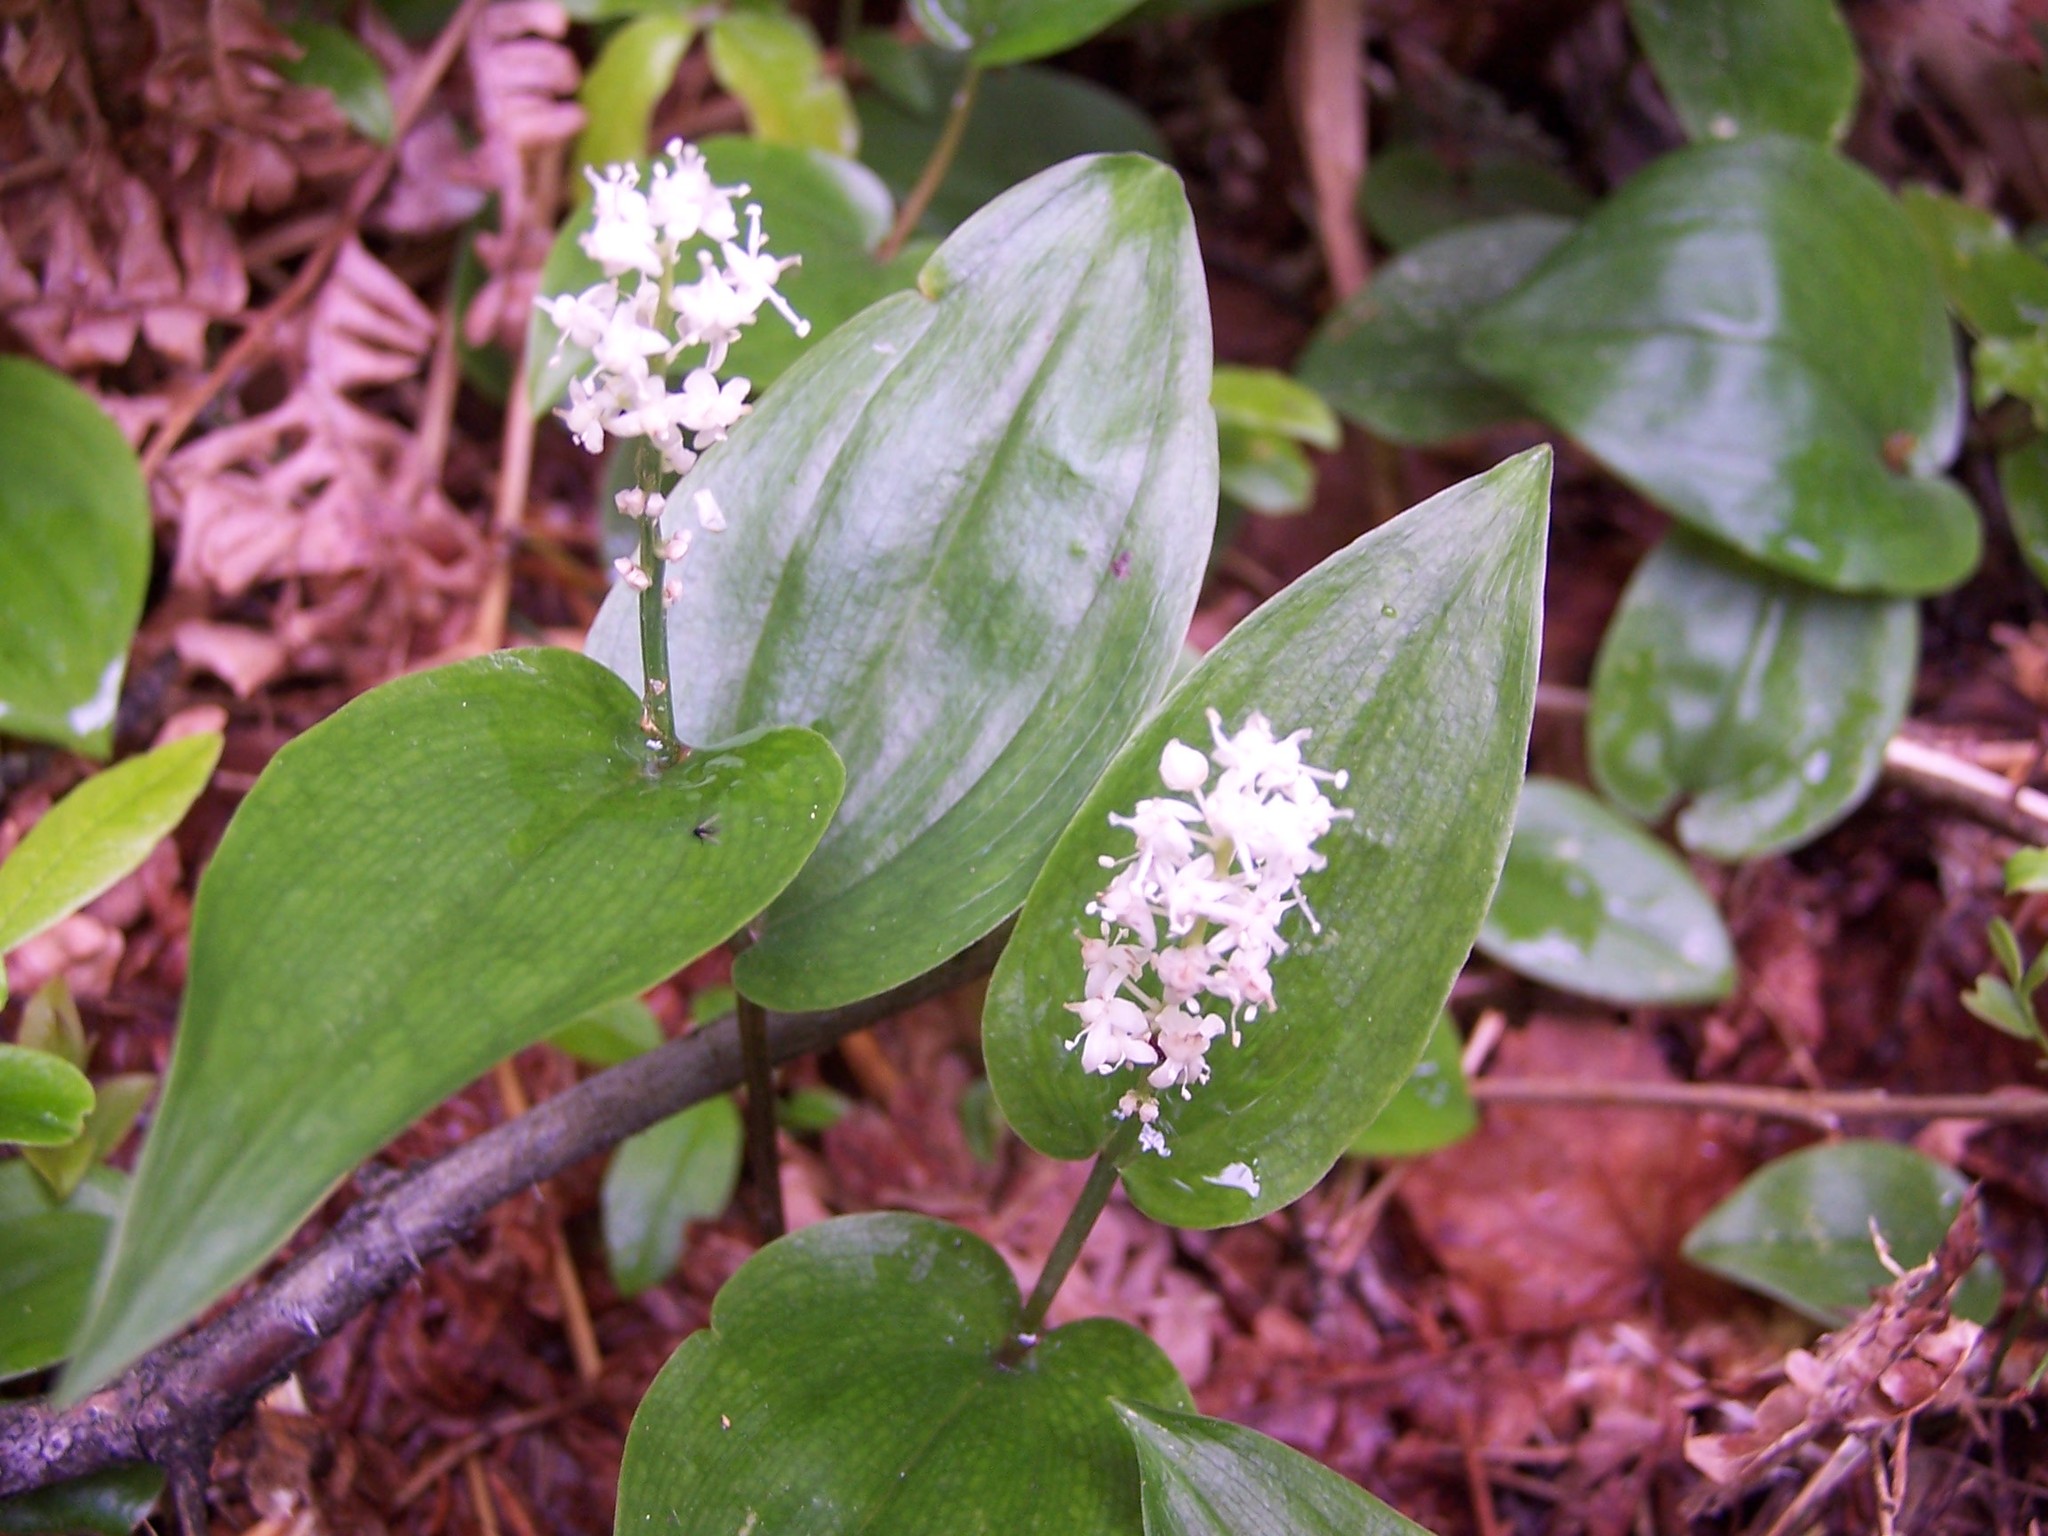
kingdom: Plantae
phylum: Tracheophyta
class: Liliopsida
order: Asparagales
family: Asparagaceae
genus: Maianthemum
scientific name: Maianthemum canadense
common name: False lily-of-the-valley
